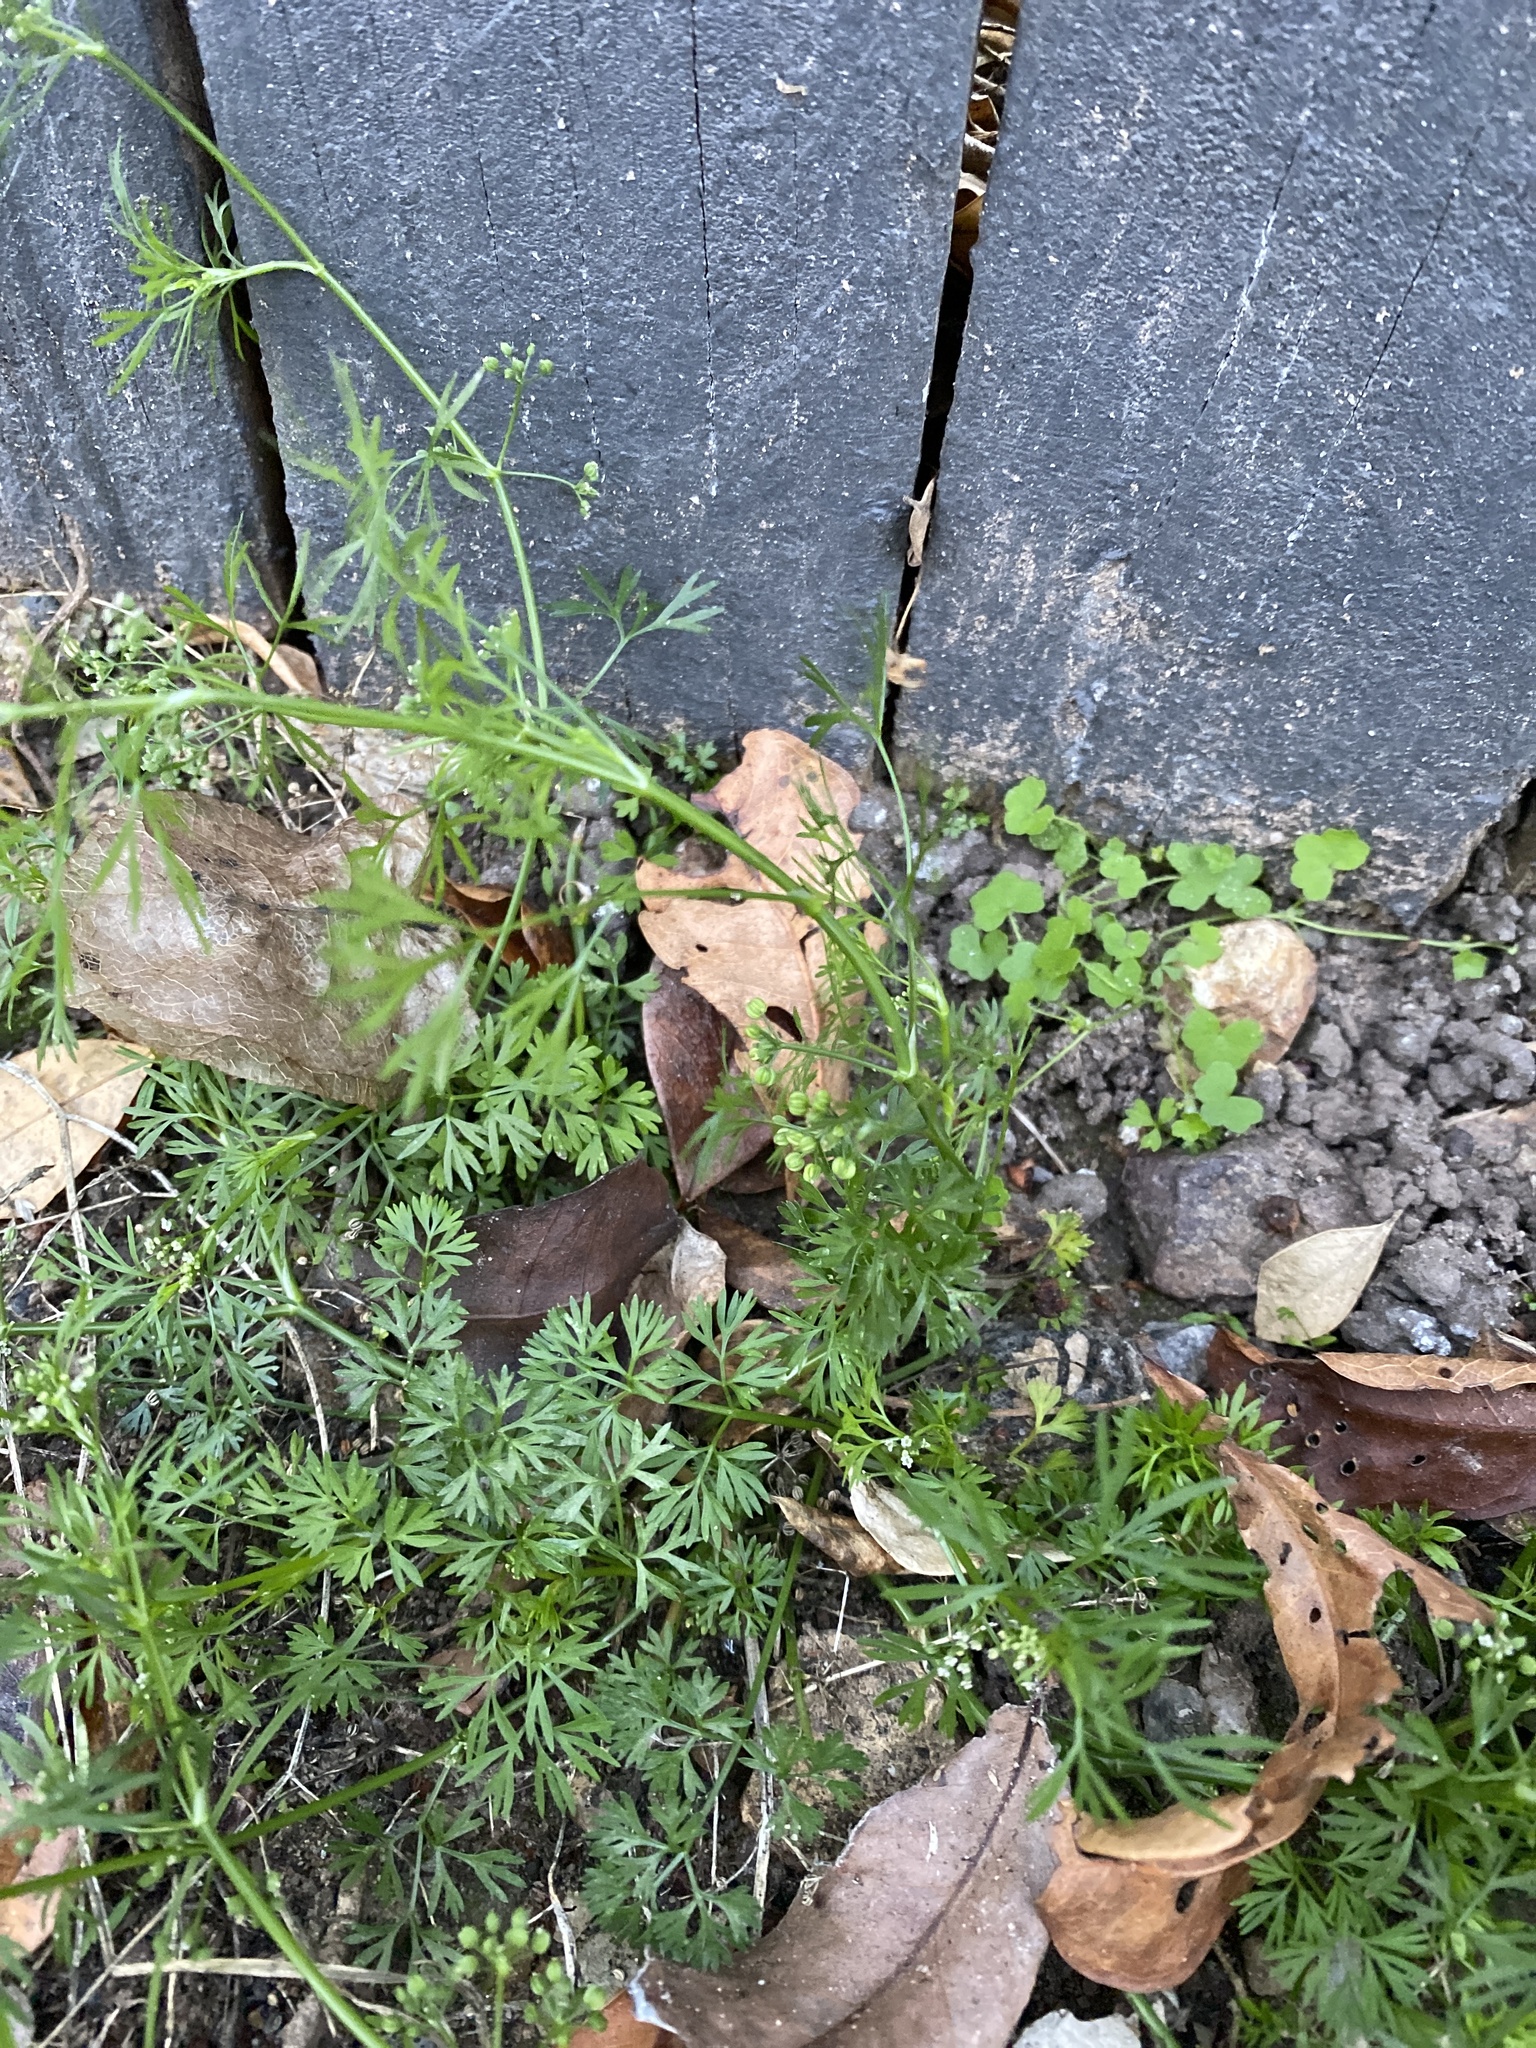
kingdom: Plantae
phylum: Tracheophyta
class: Magnoliopsida
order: Apiales
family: Apiaceae
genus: Cyclospermum
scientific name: Cyclospermum leptophyllum
